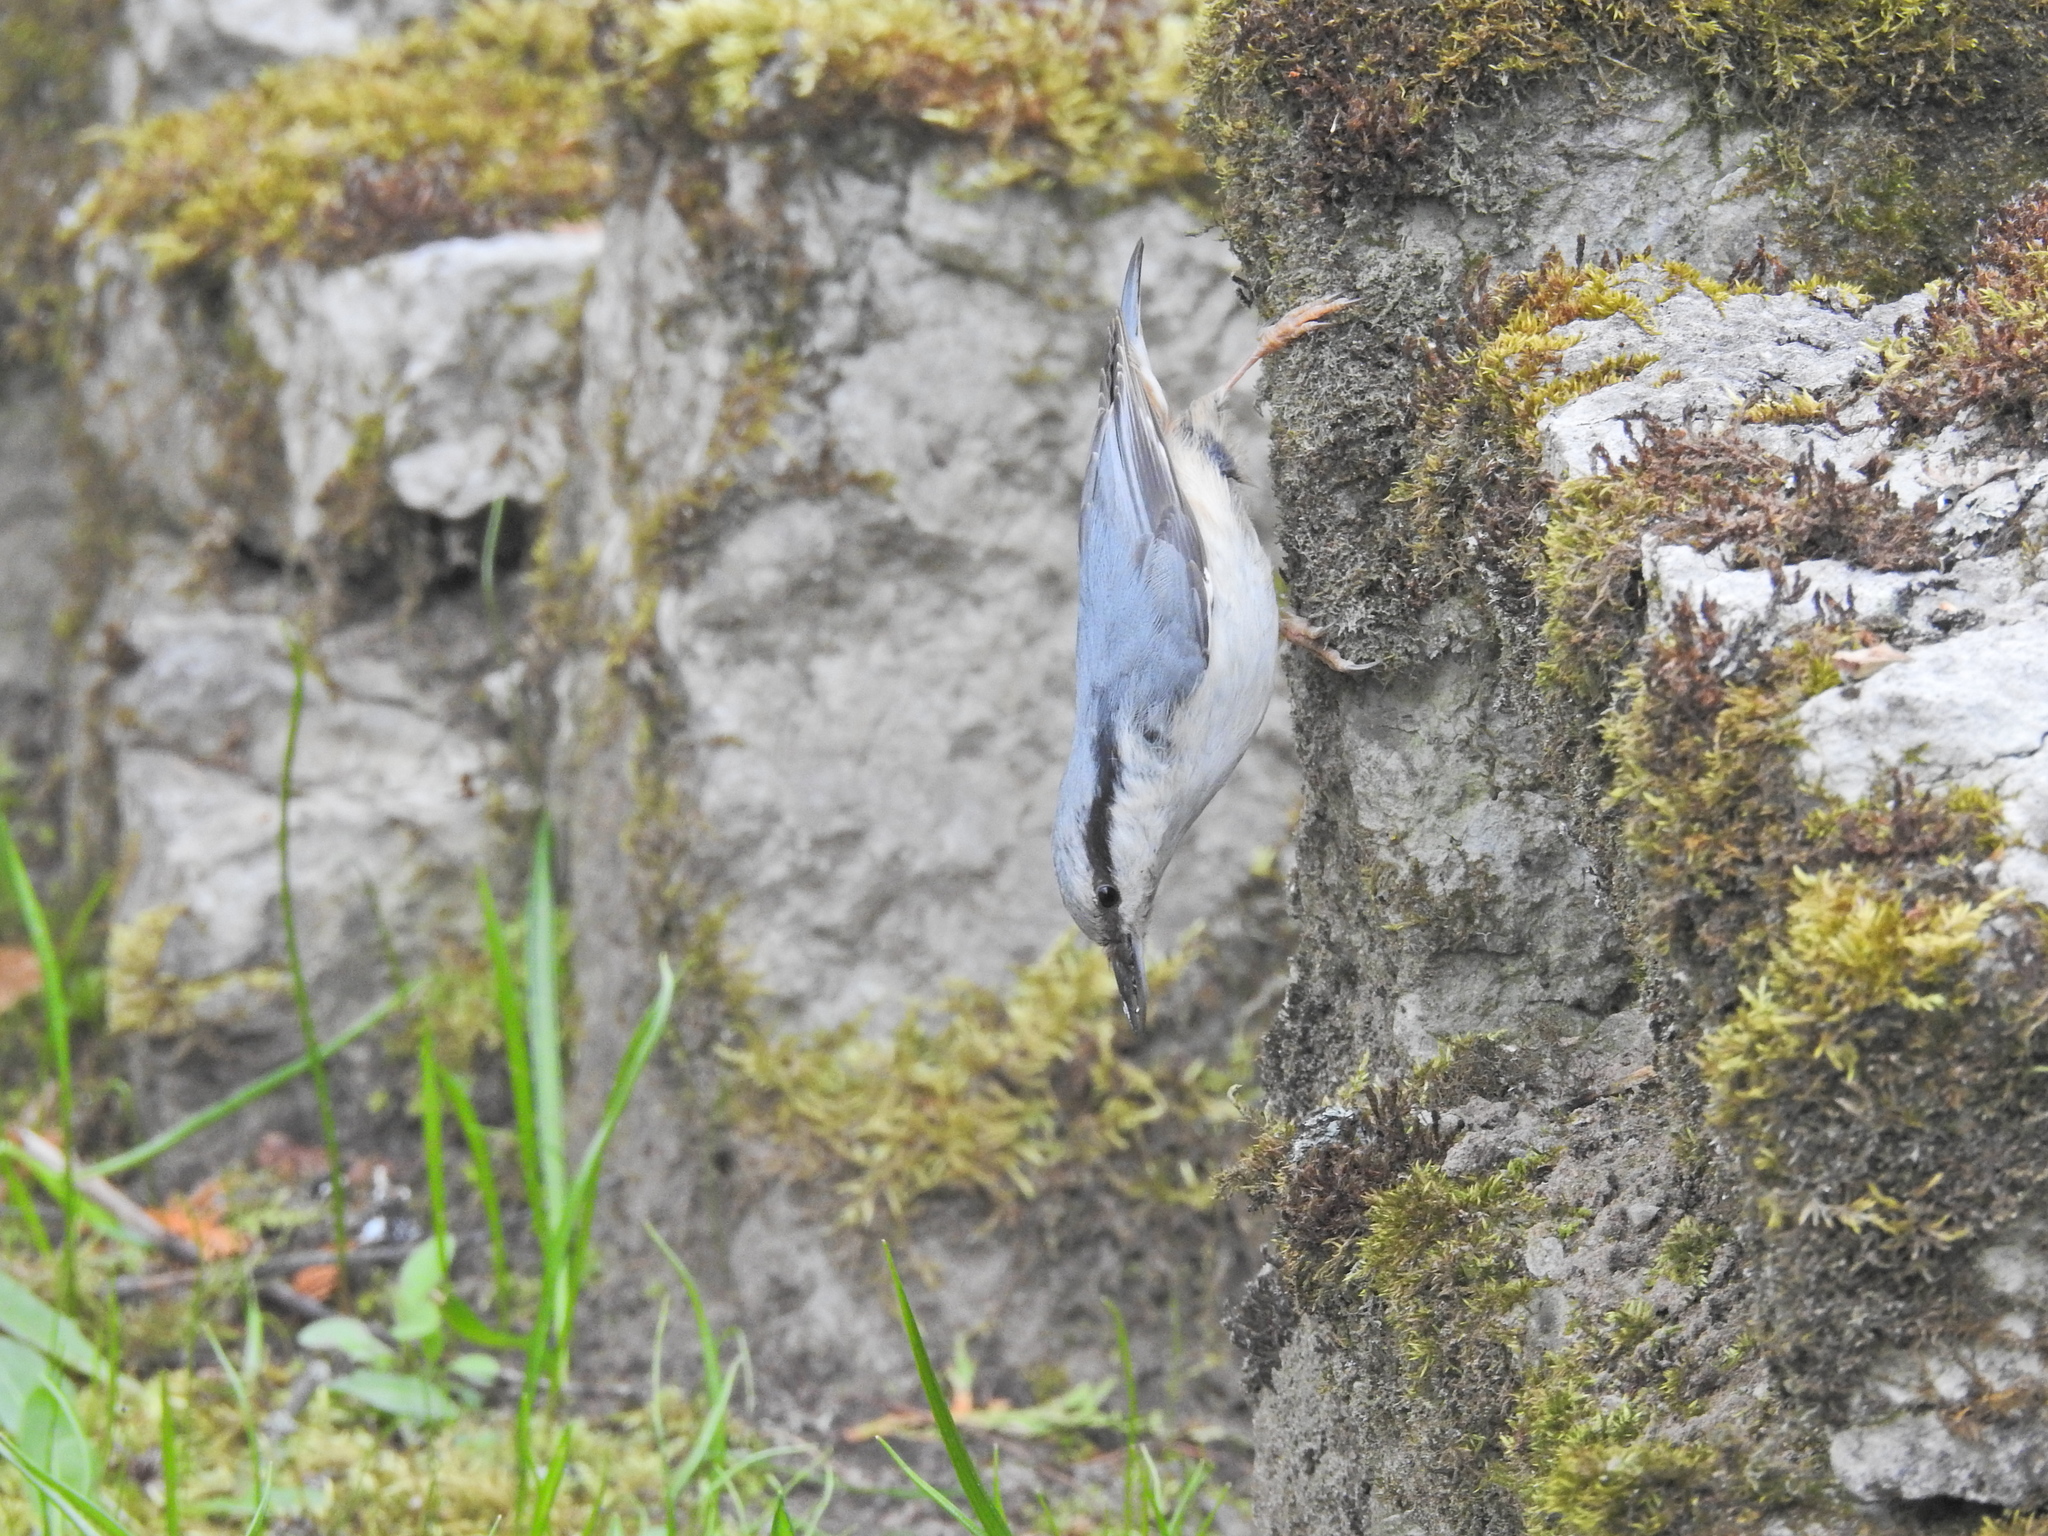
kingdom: Animalia
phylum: Chordata
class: Aves
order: Passeriformes
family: Sittidae
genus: Sitta
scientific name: Sitta europaea
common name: Eurasian nuthatch
